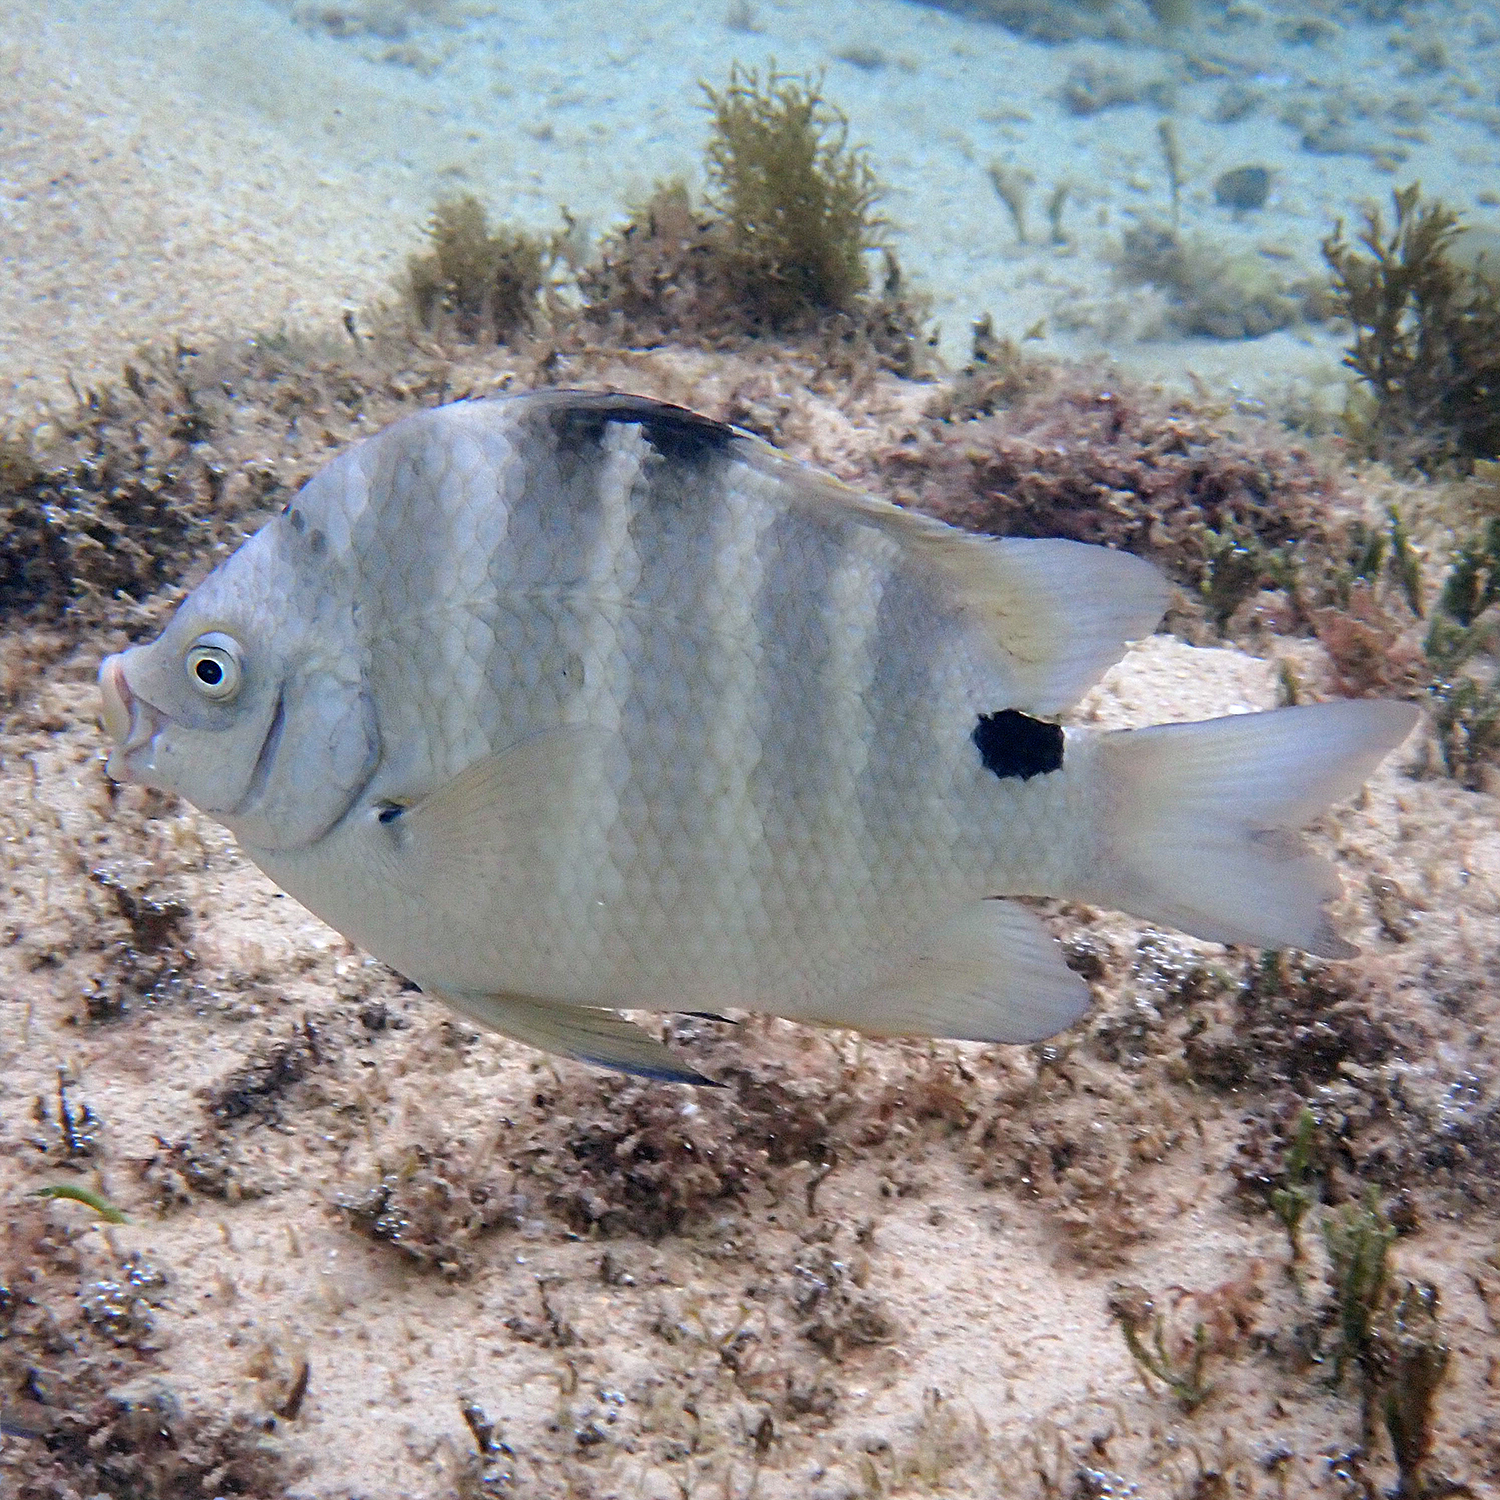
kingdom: Animalia
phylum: Chordata
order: Perciformes
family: Pomacentridae
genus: Abudefduf
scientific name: Abudefduf sordidus
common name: Blackspot sergeant
